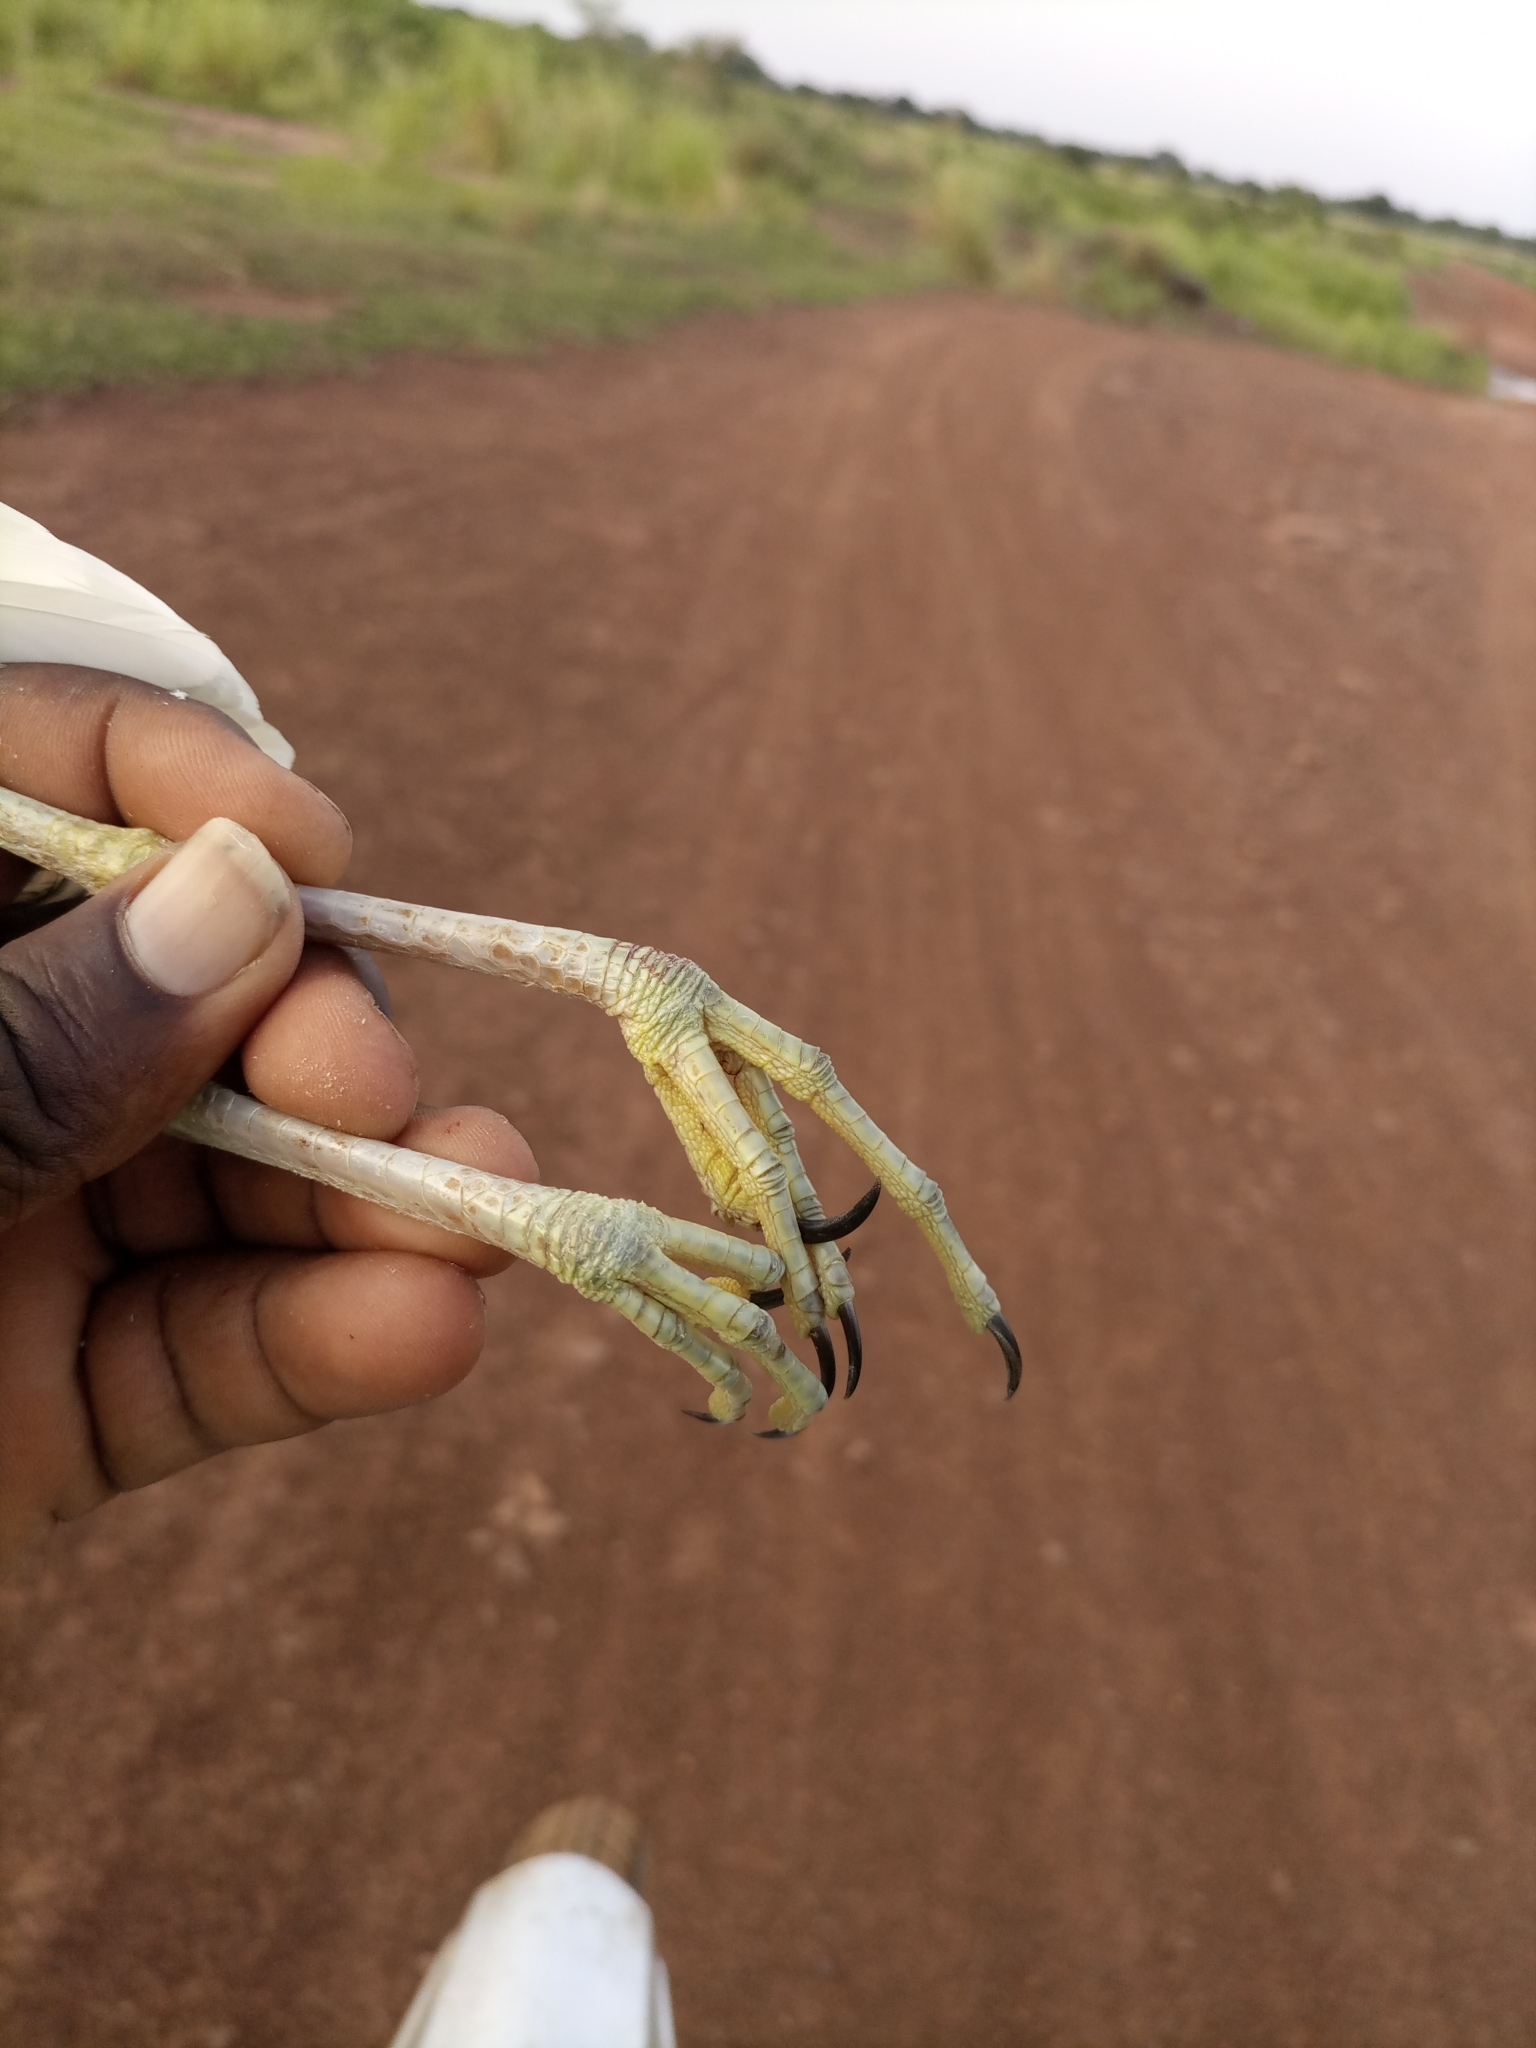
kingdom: Animalia
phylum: Chordata
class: Aves
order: Pelecaniformes
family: Ardeidae
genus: Ardeola
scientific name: Ardeola ralloides
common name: Squacco heron
